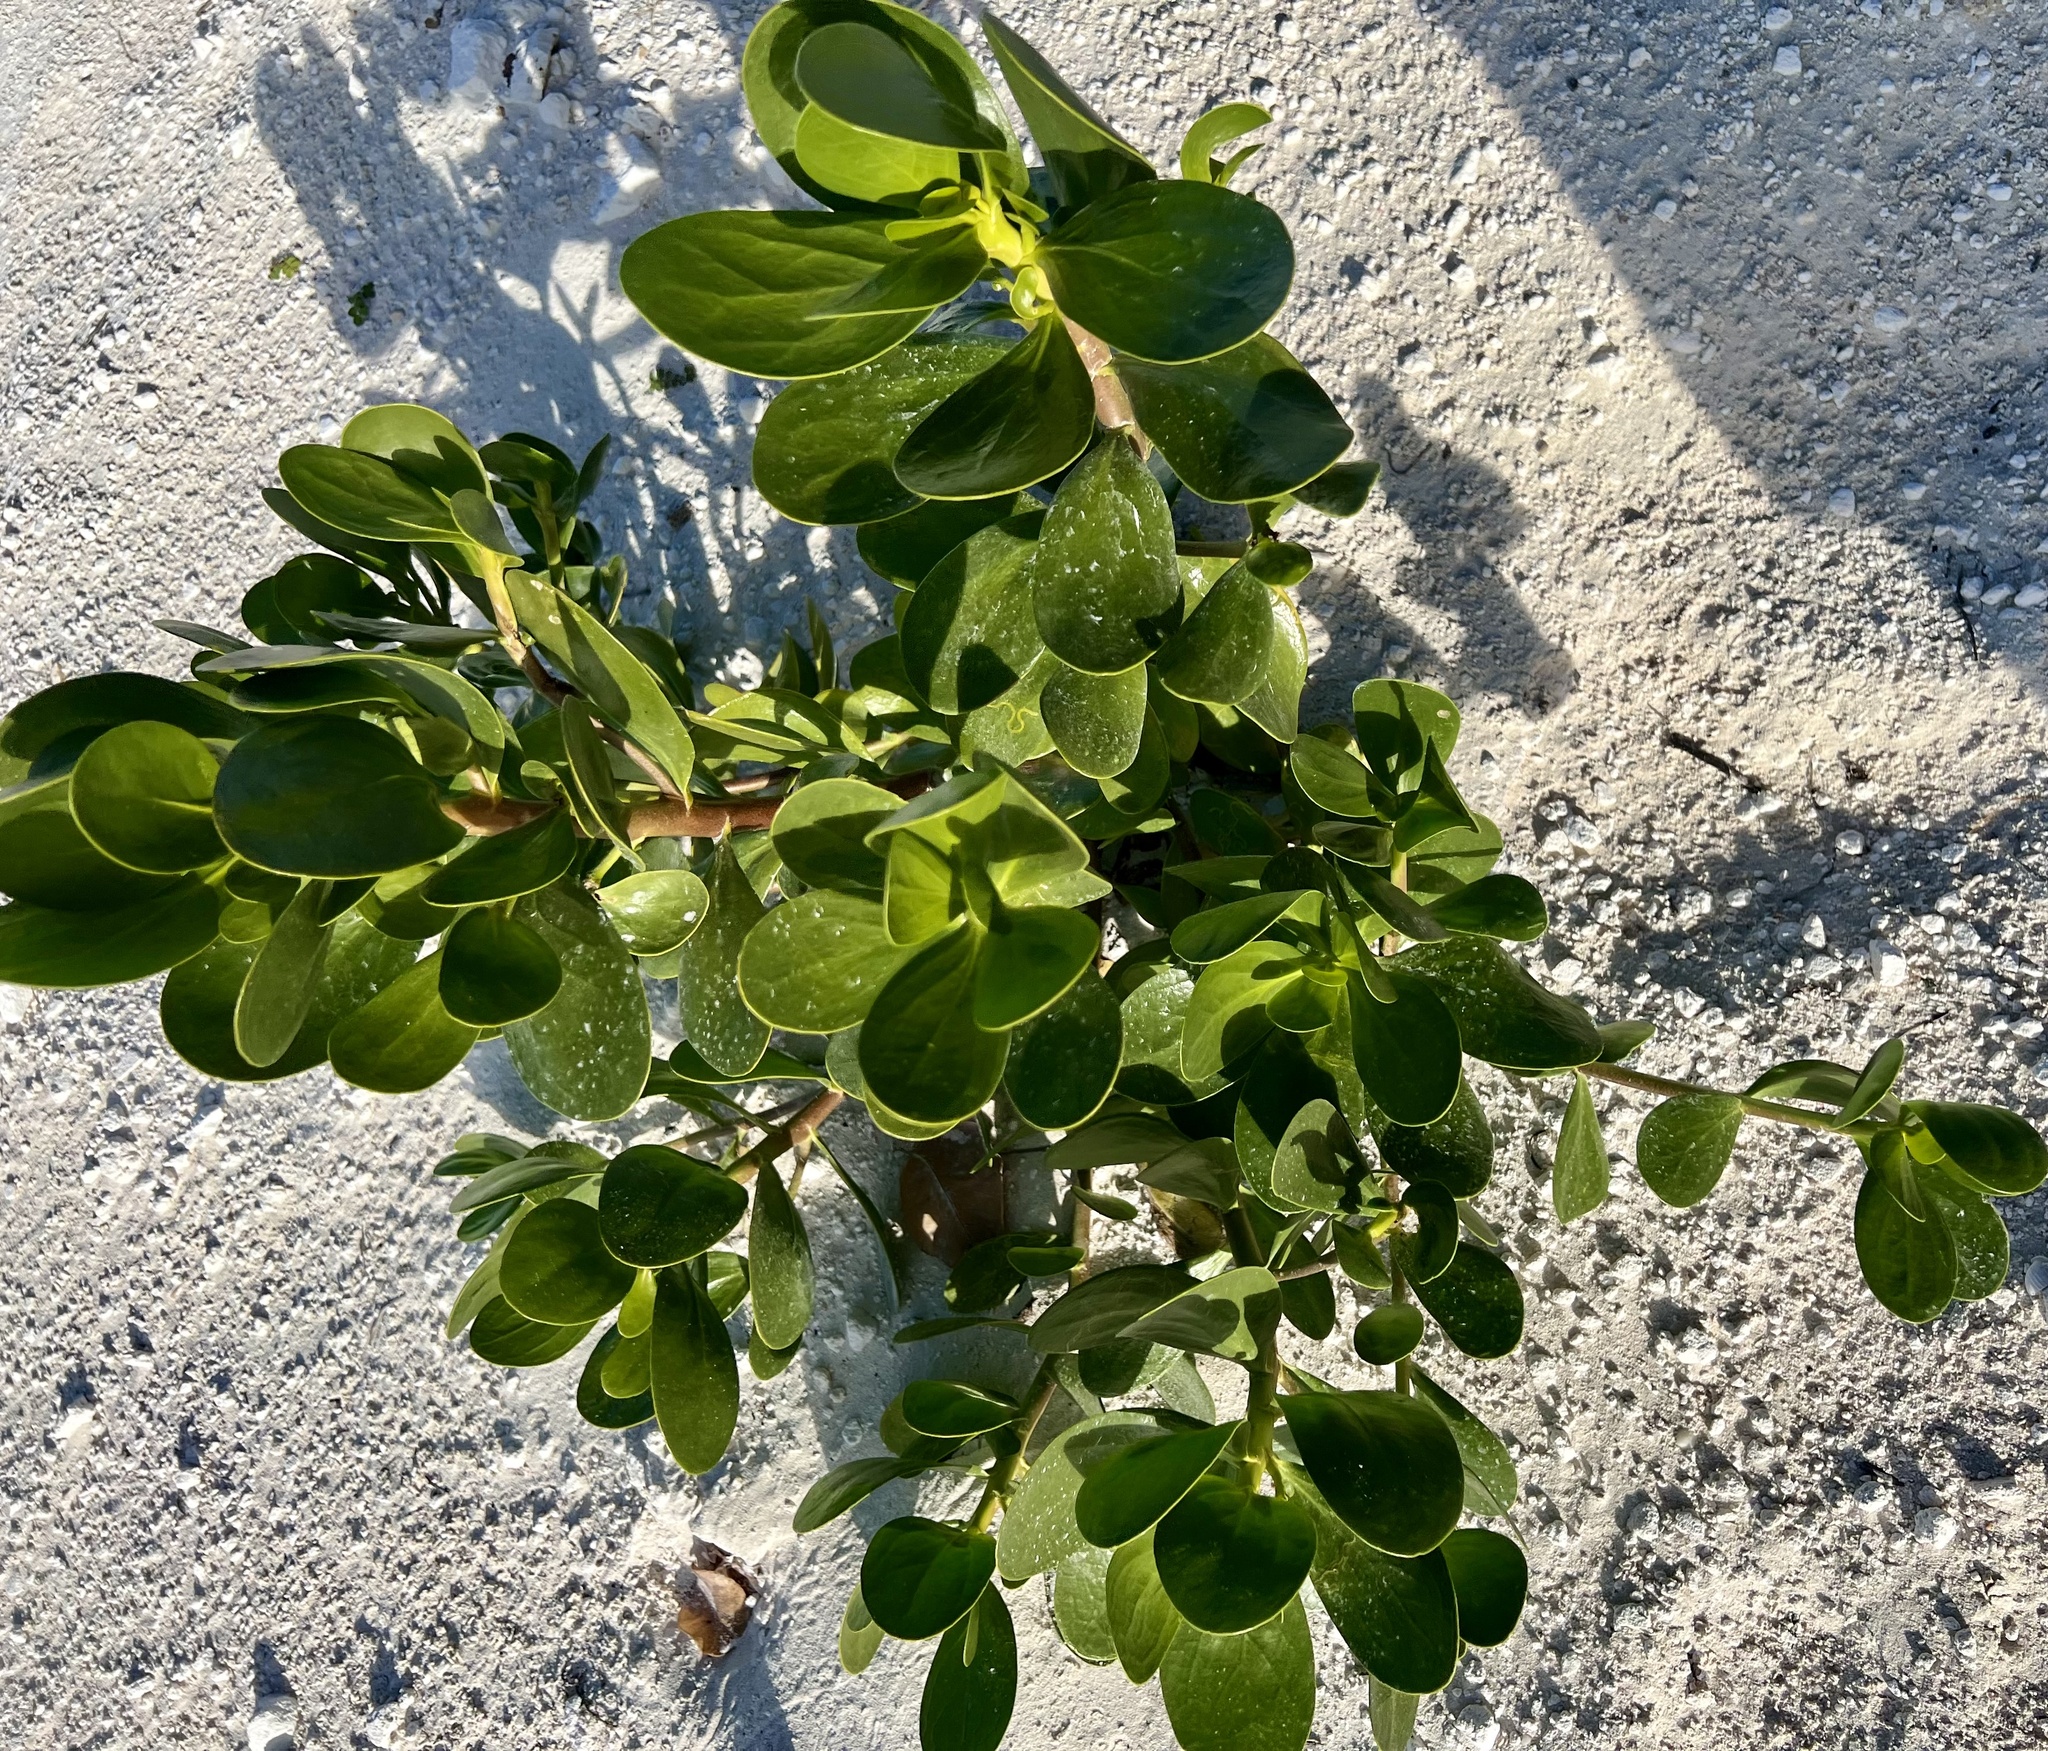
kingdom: Plantae
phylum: Tracheophyta
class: Magnoliopsida
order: Asterales
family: Goodeniaceae
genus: Scaevola
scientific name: Scaevola plumieri
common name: Gull feed
